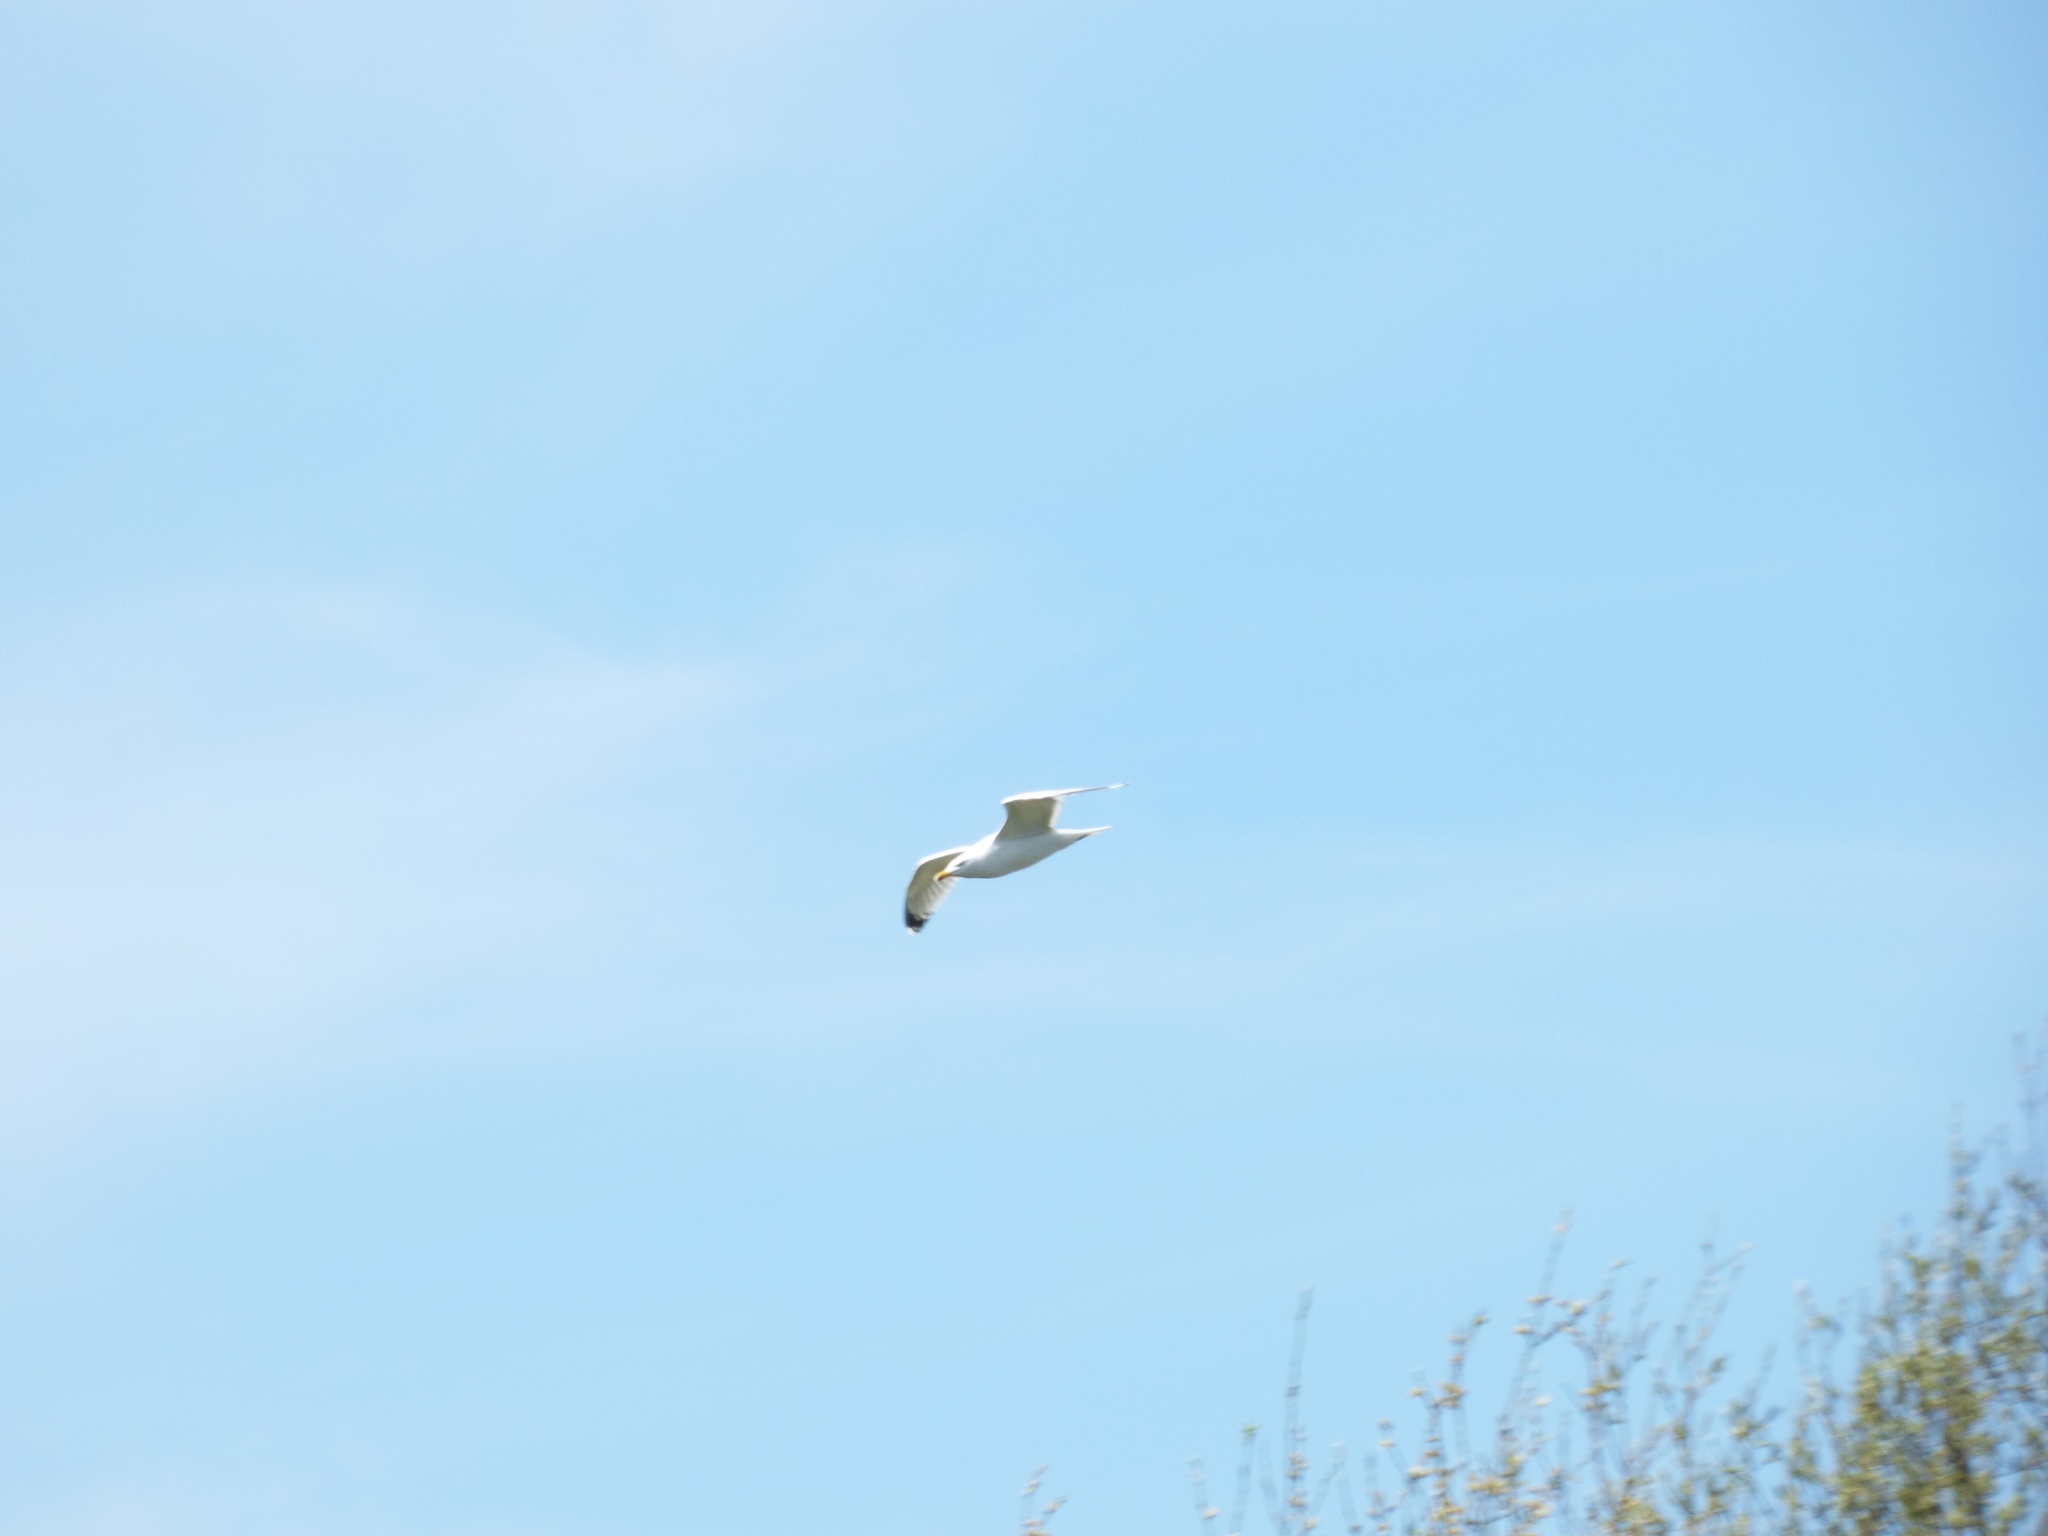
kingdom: Animalia
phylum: Chordata
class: Aves
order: Charadriiformes
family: Laridae
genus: Larus
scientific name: Larus argentatus
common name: Herring gull
